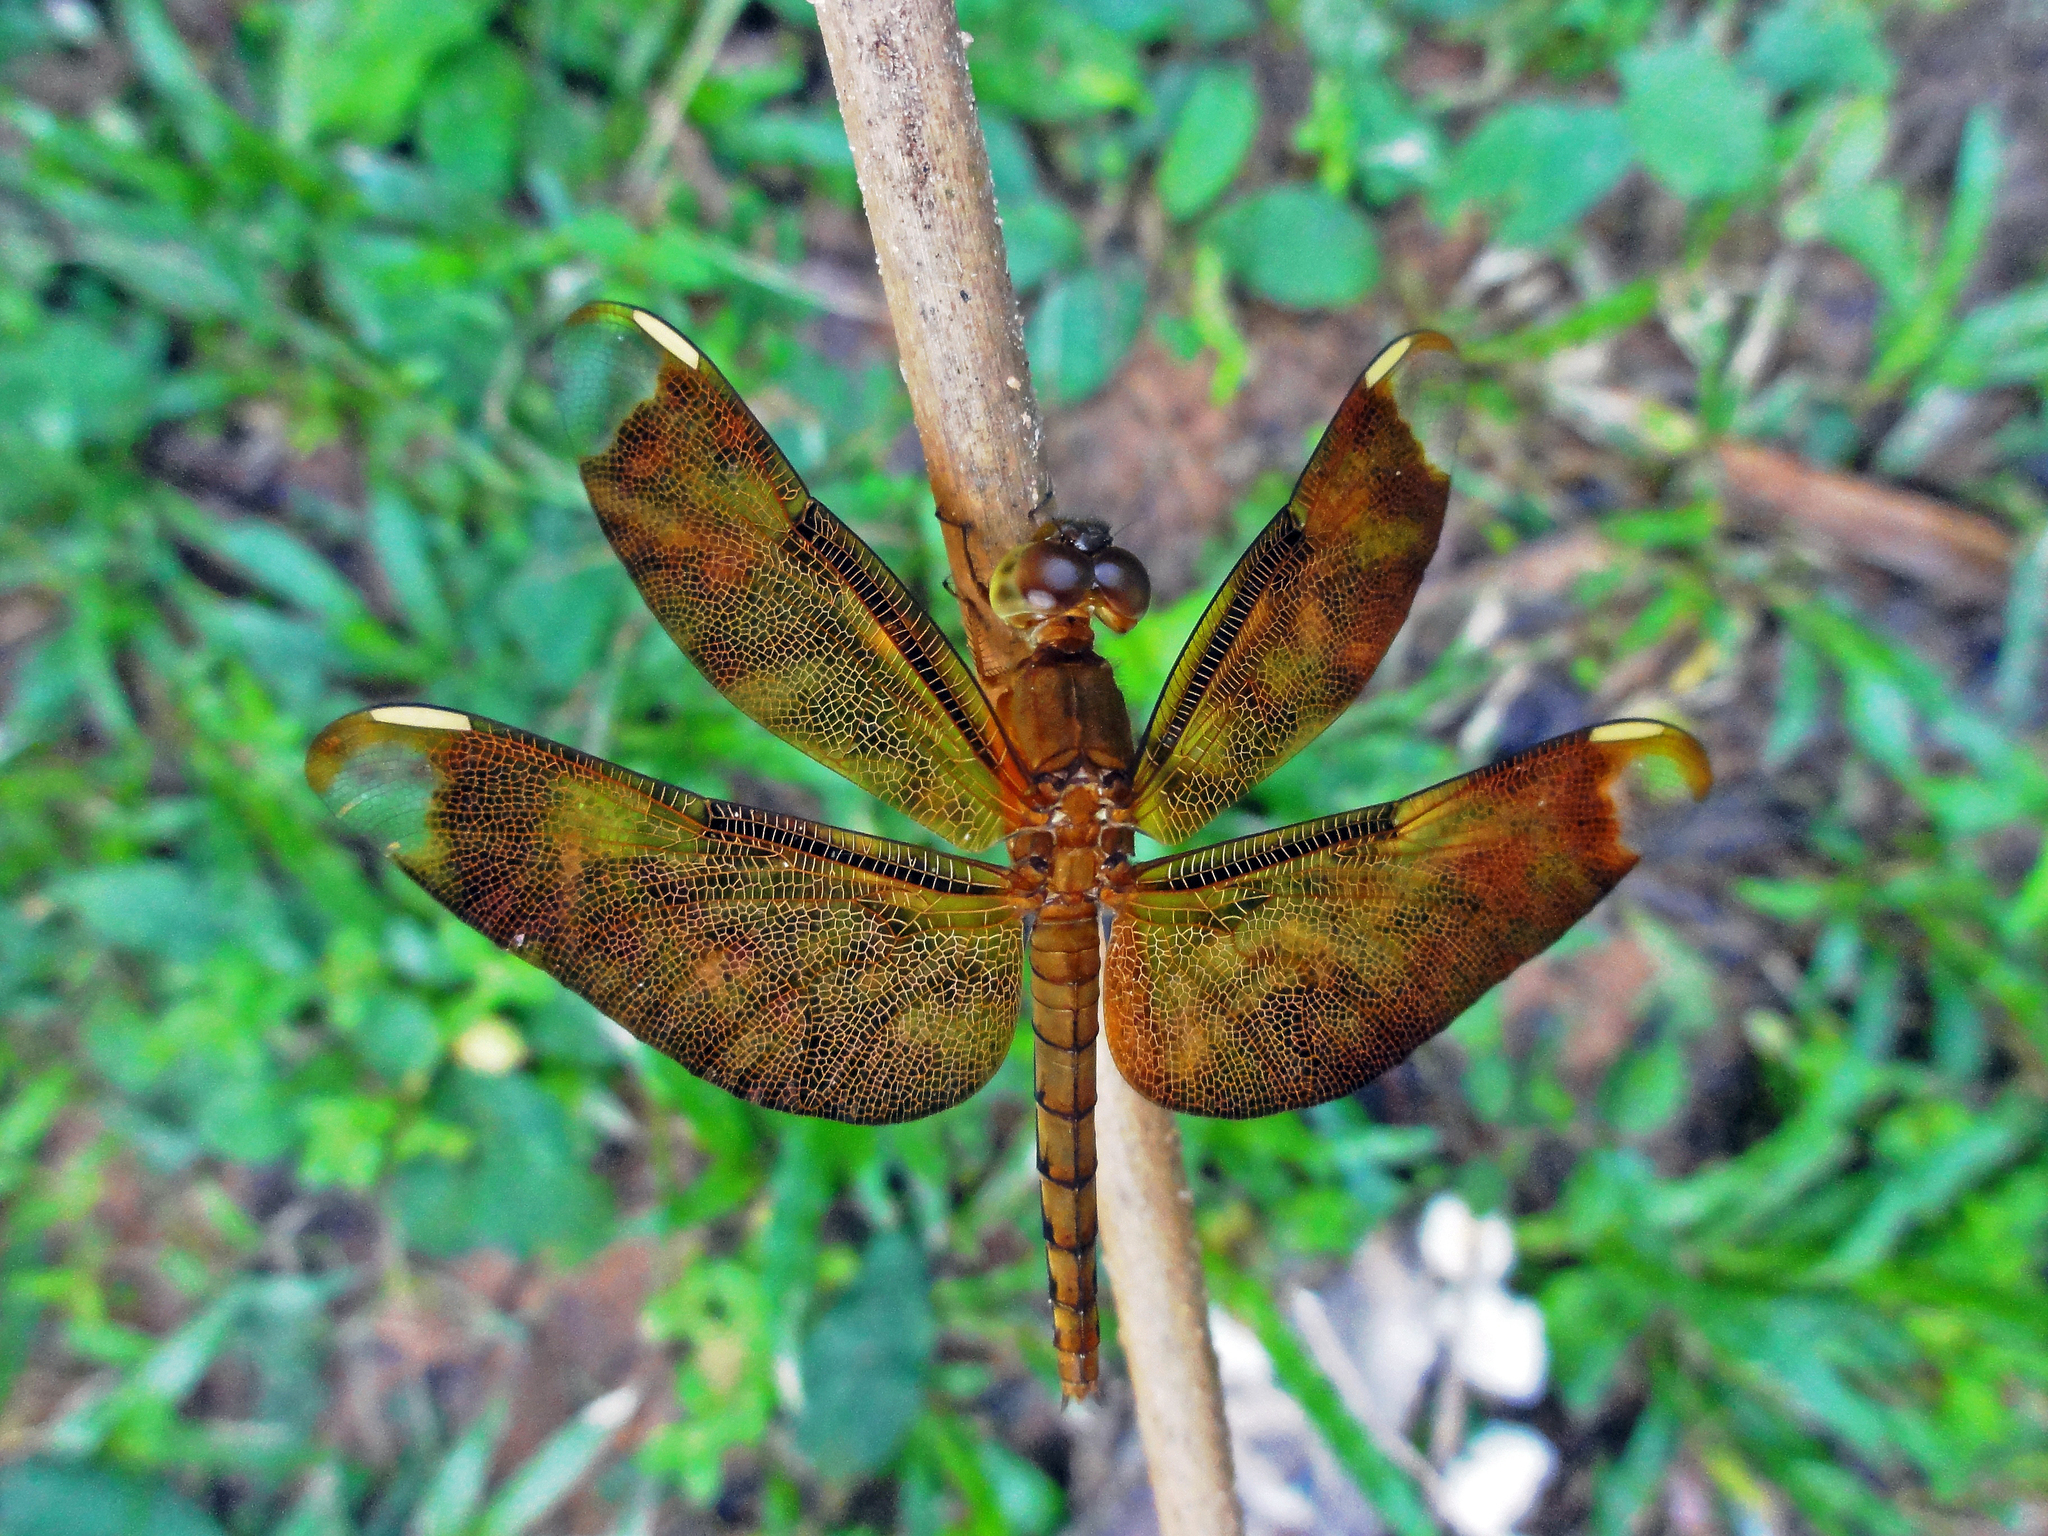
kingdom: Animalia
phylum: Arthropoda
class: Insecta
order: Odonata
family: Libellulidae
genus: Neurothemis
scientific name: Neurothemis fulvia
